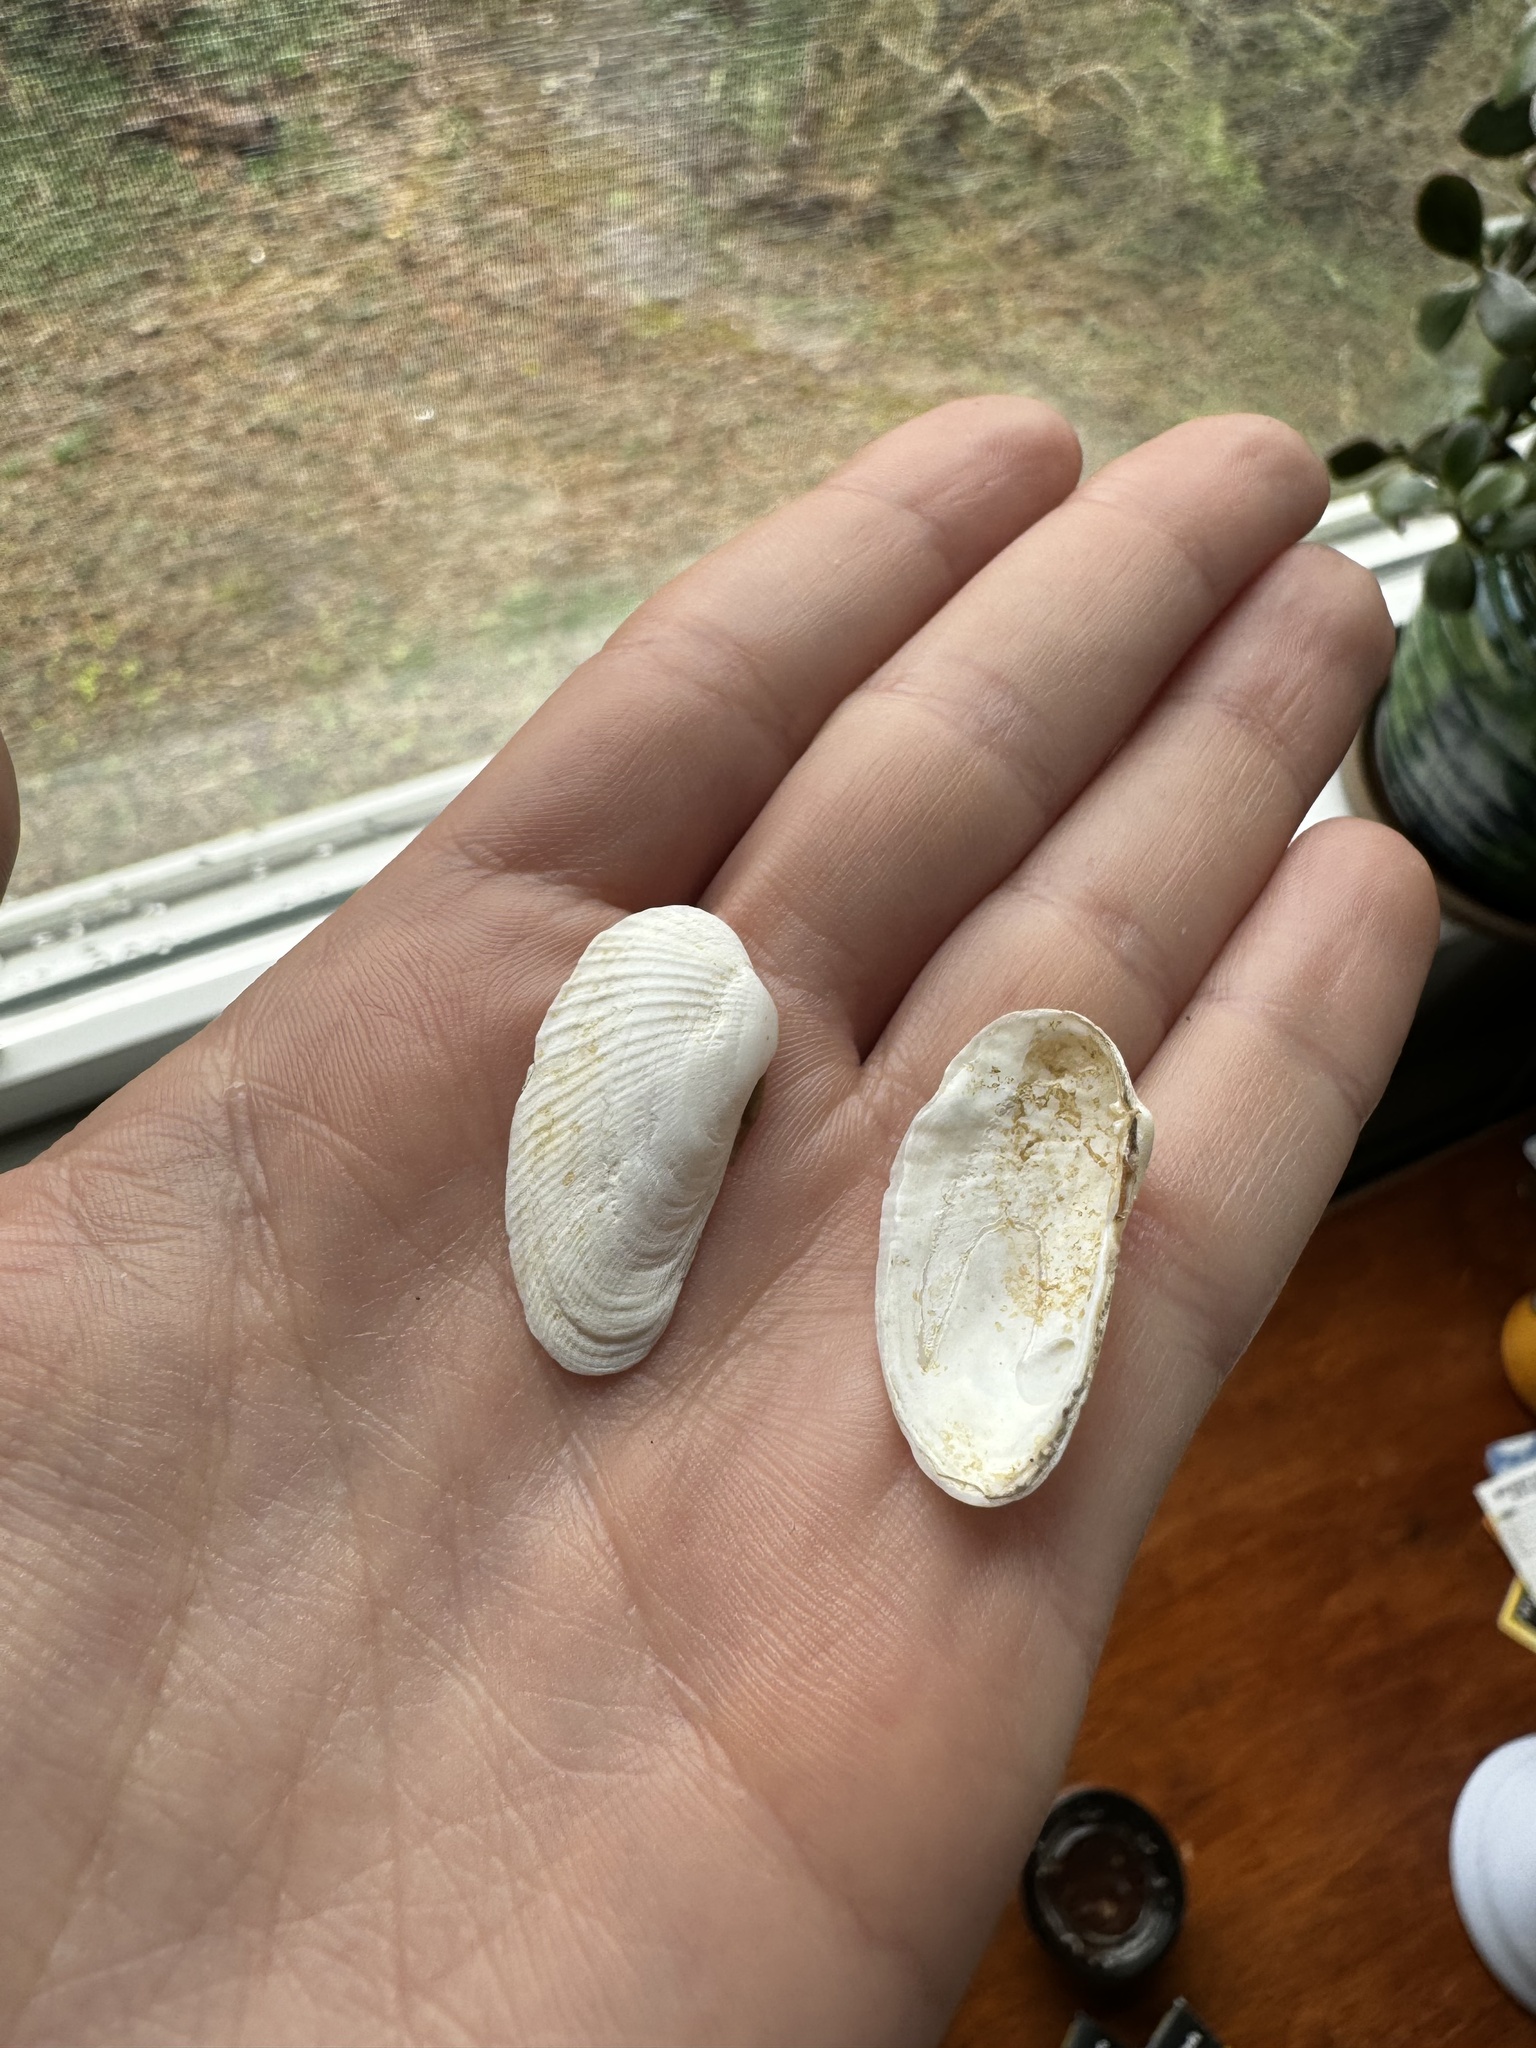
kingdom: Animalia
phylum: Mollusca
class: Bivalvia
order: Venerida
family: Veneridae
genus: Petricolaria
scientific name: Petricolaria pholadiformis
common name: American piddock
